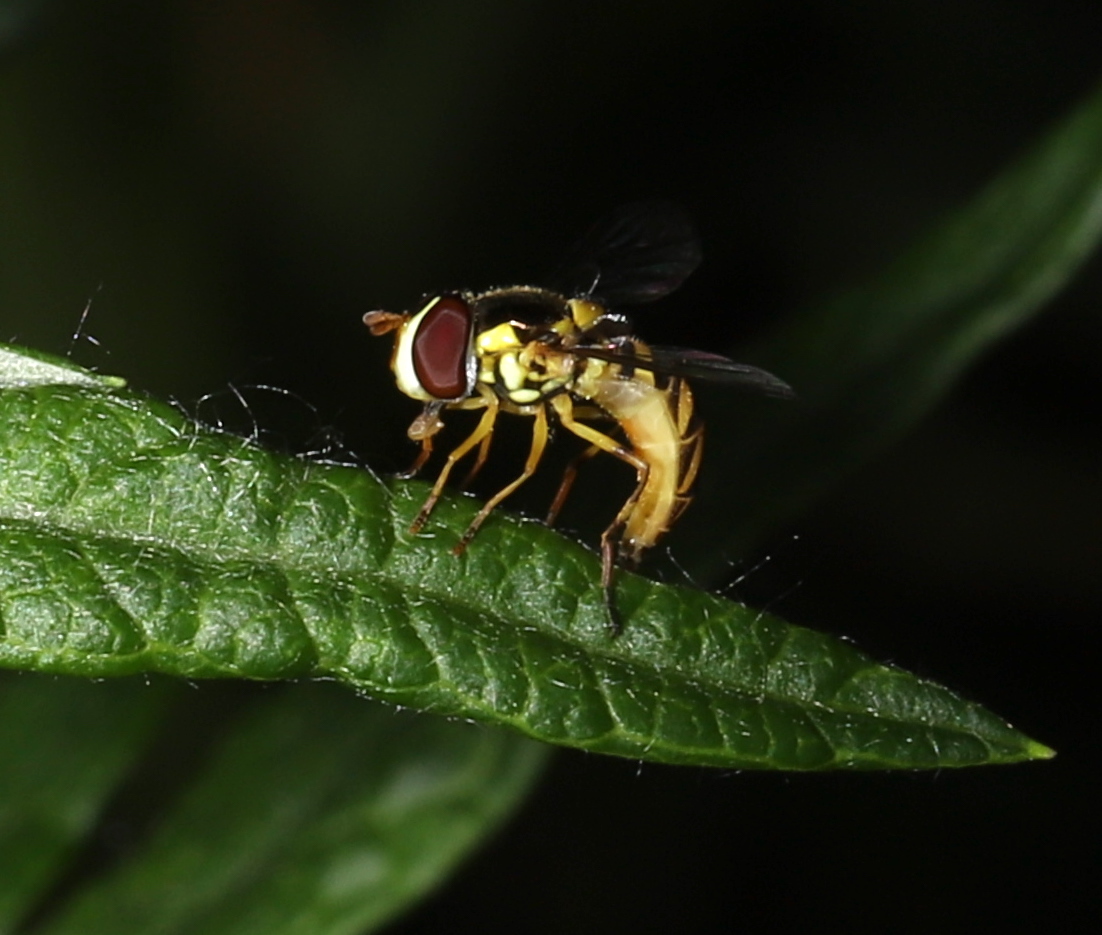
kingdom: Animalia
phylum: Arthropoda
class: Insecta
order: Diptera
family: Syrphidae
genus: Allograpta
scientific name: Allograpta obliqua
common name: Common oblique syrphid
